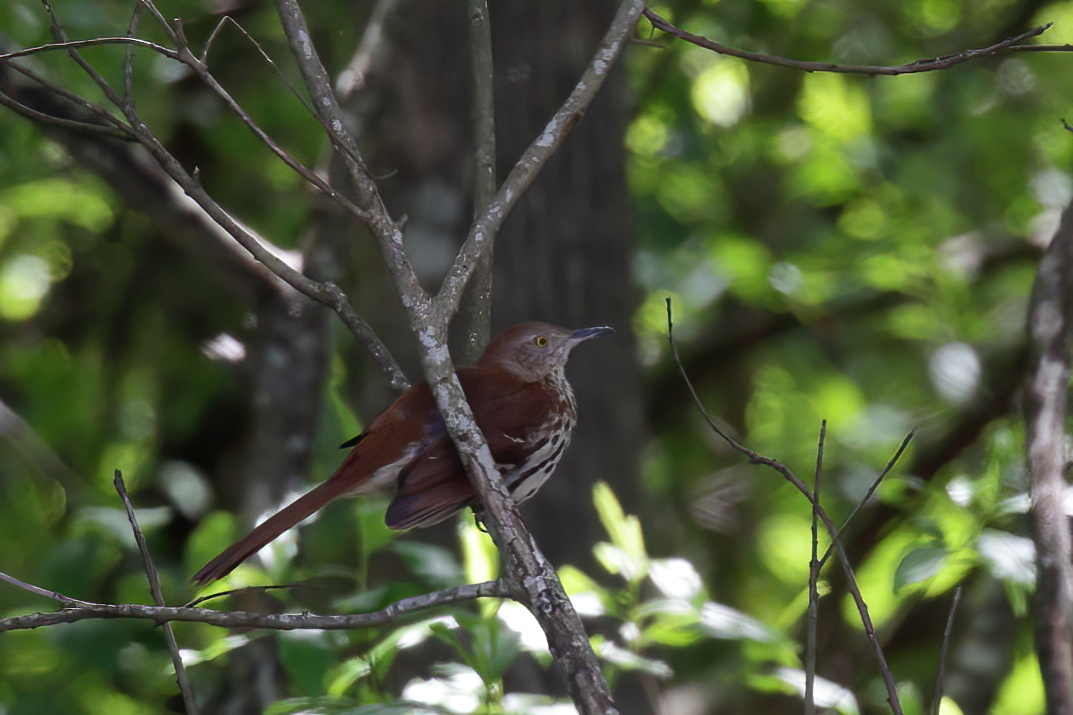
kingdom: Animalia
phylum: Chordata
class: Aves
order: Passeriformes
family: Mimidae
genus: Toxostoma
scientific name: Toxostoma rufum
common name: Brown thrasher
